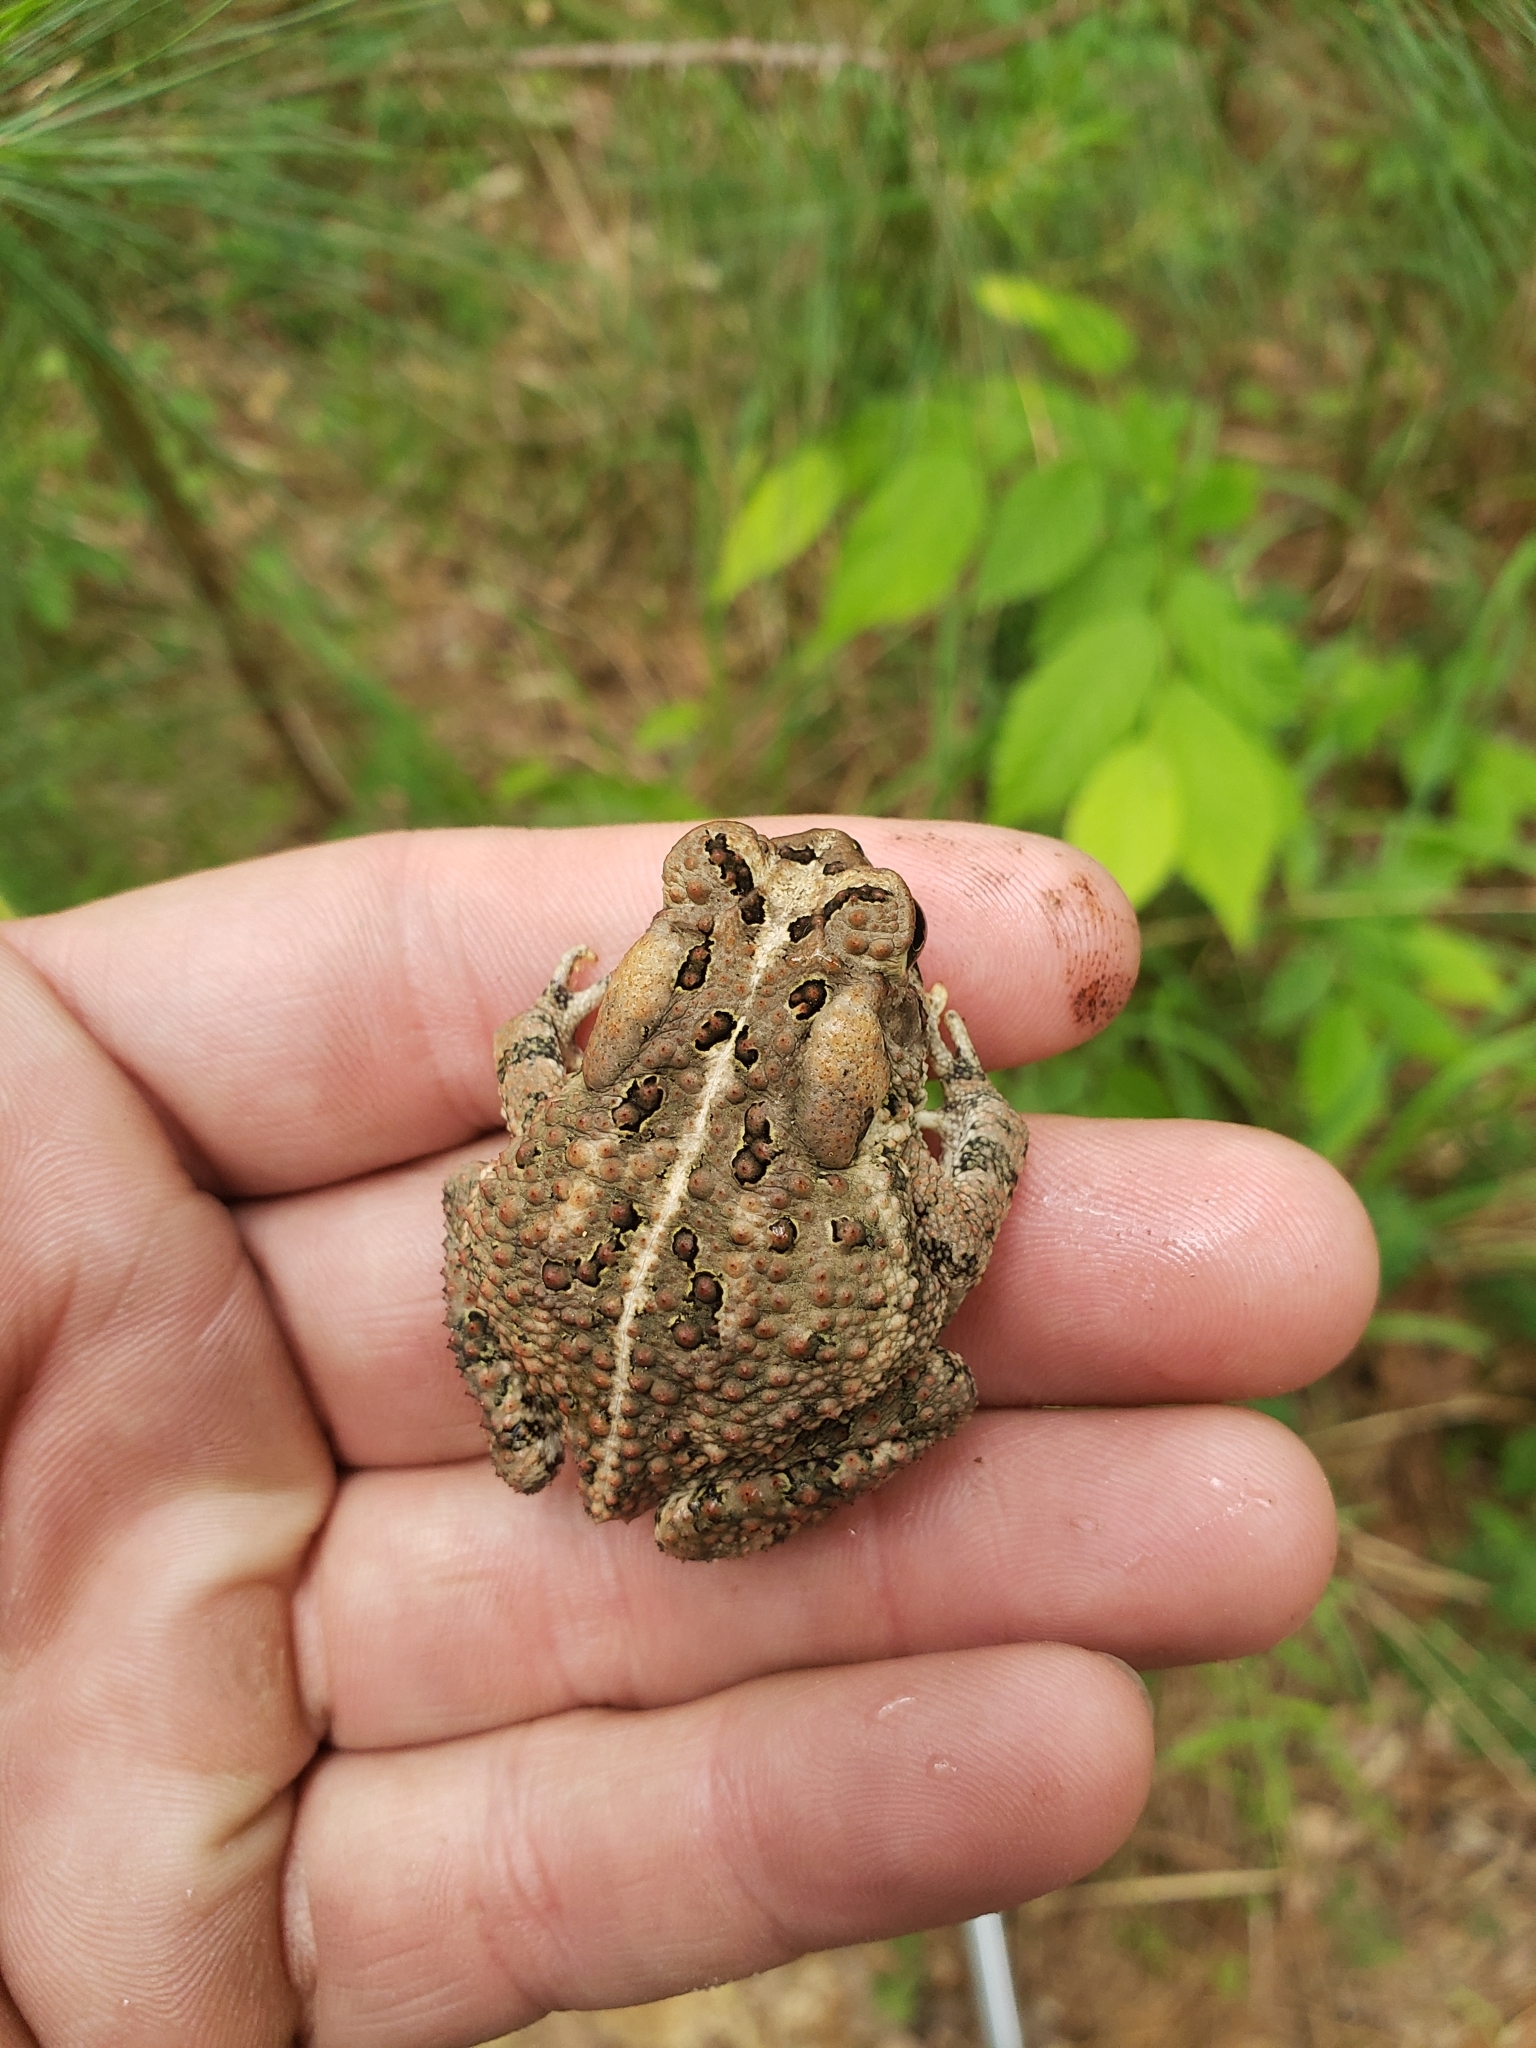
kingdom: Animalia
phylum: Chordata
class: Amphibia
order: Anura
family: Bufonidae
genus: Anaxyrus
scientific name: Anaxyrus fowleri
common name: Fowler's toad
